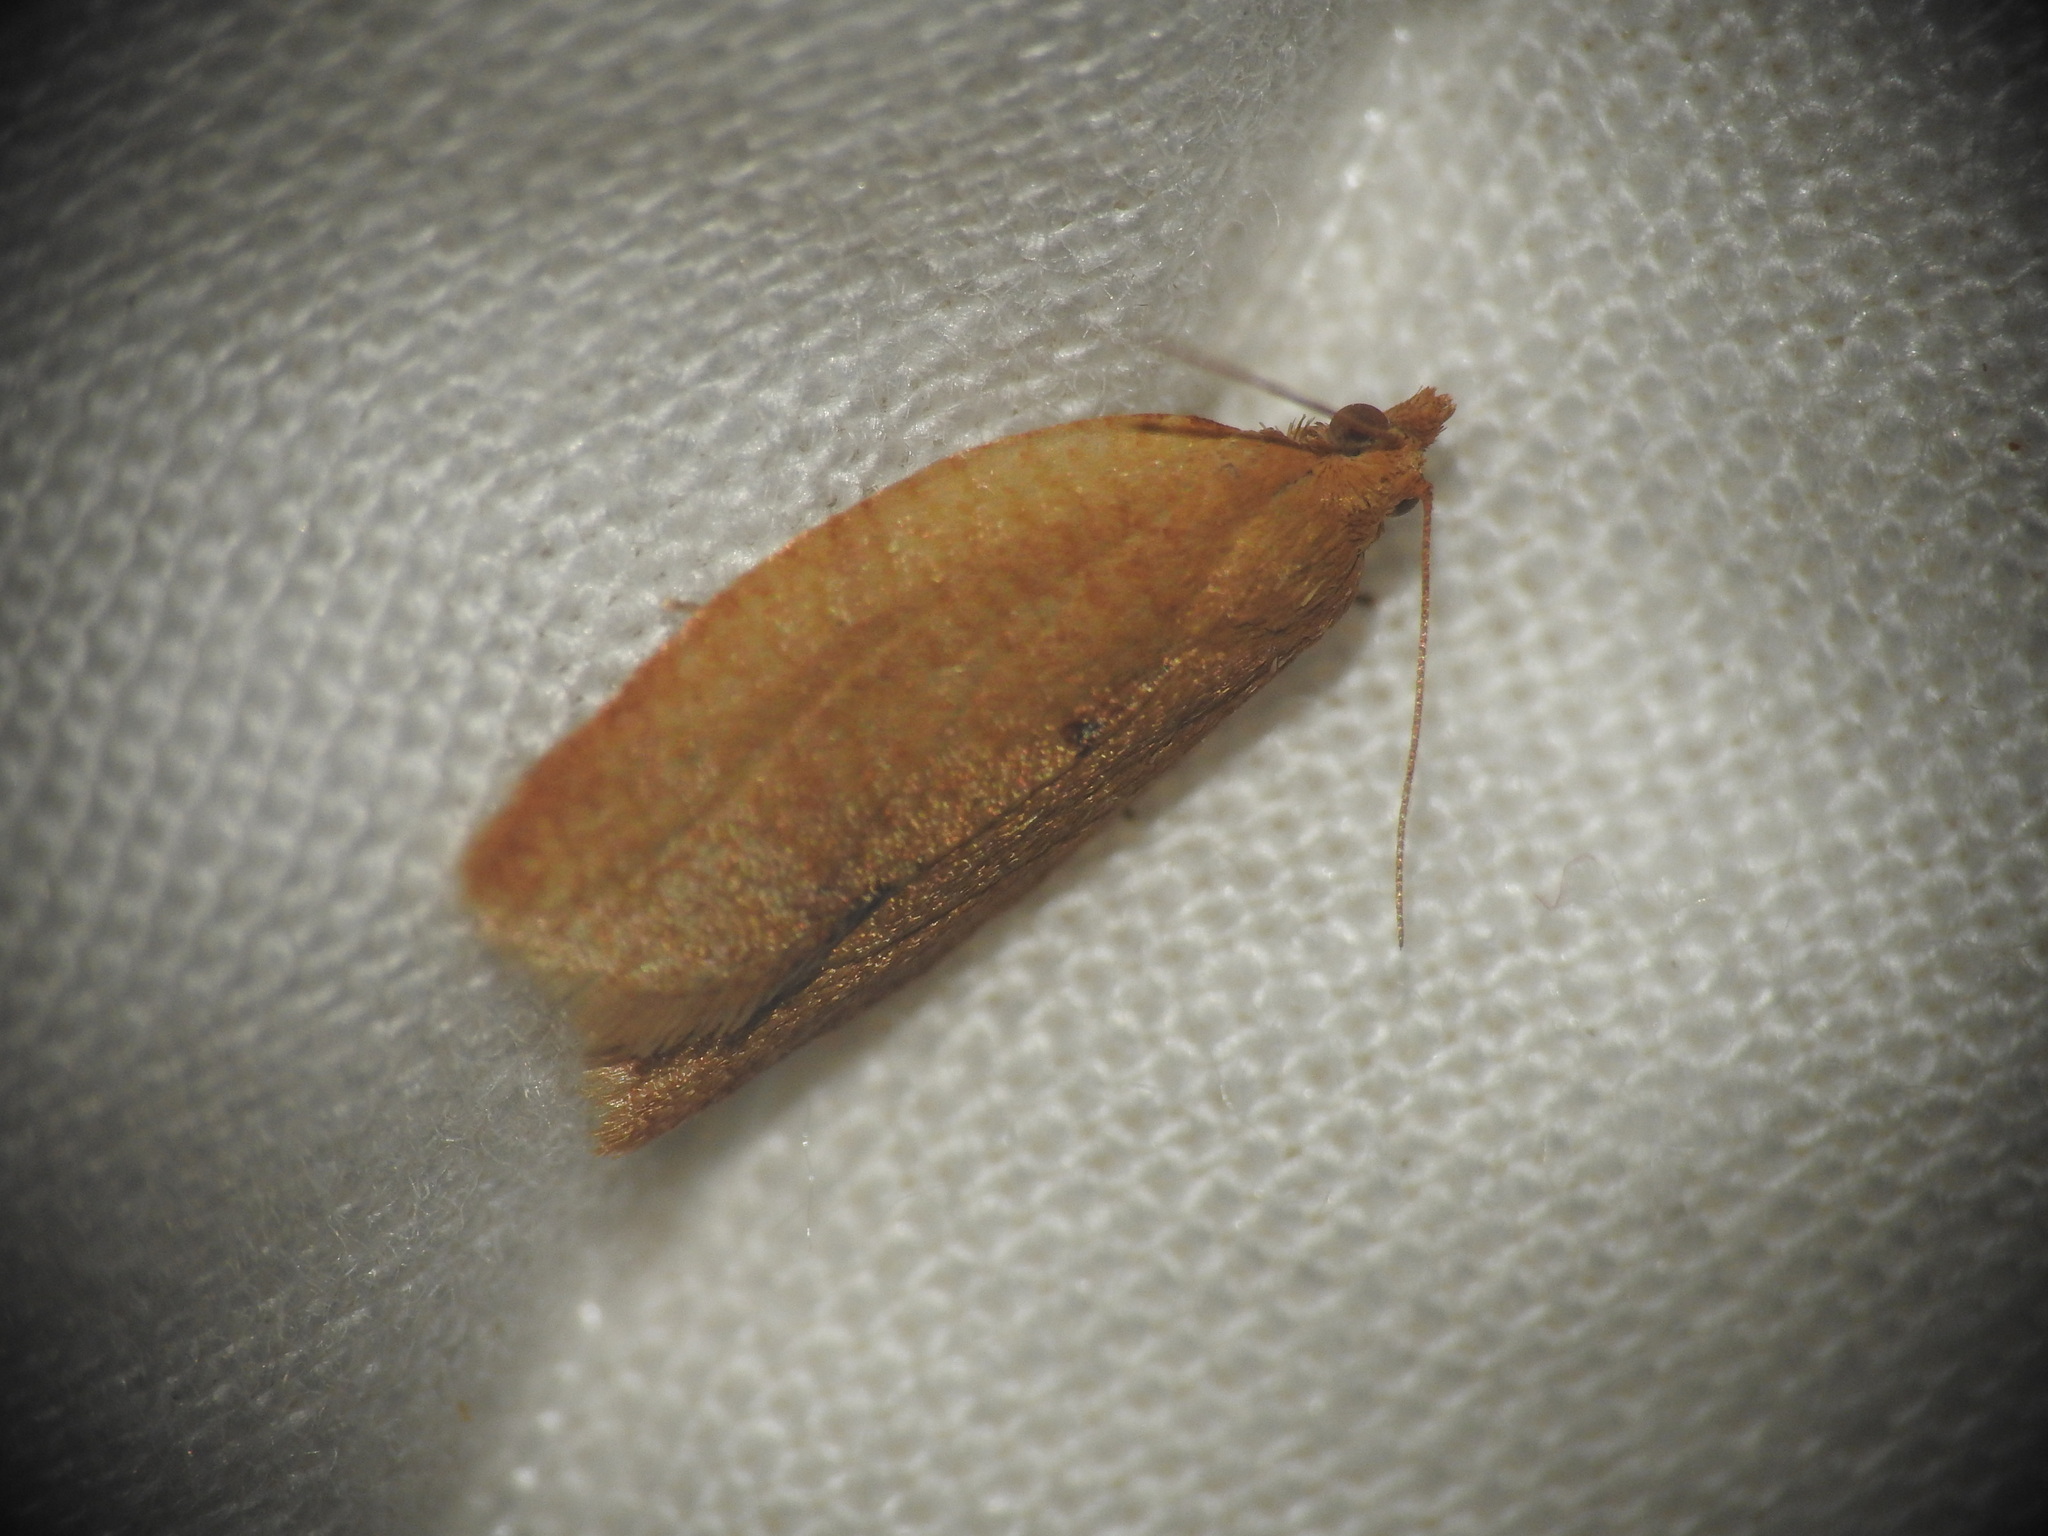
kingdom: Animalia
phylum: Arthropoda
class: Insecta
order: Lepidoptera
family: Tortricidae
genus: Clepsis
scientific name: Clepsis consimilana
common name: Privet tortrix
